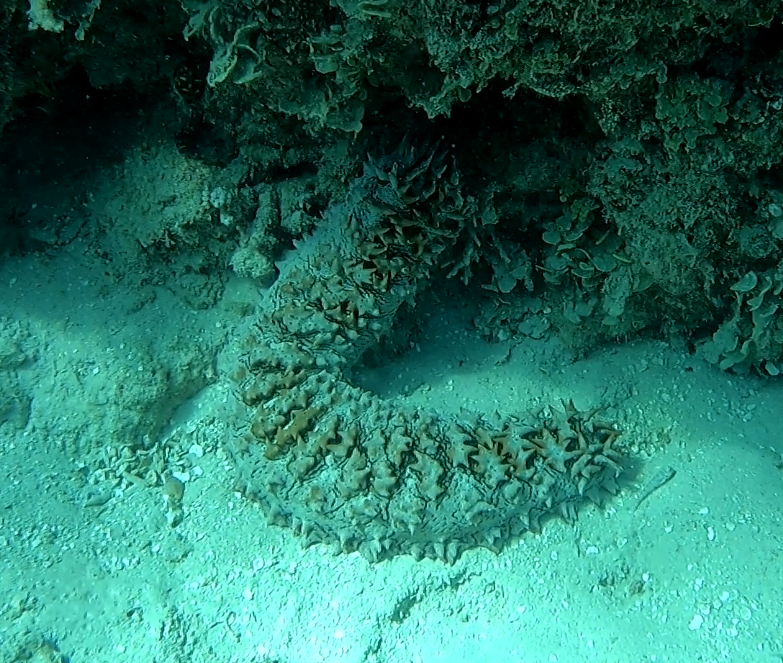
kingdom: Animalia
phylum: Echinodermata
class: Holothuroidea
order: Synallactida
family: Stichopodidae
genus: Thelenota
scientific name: Thelenota ananas
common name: Prickly redfish
